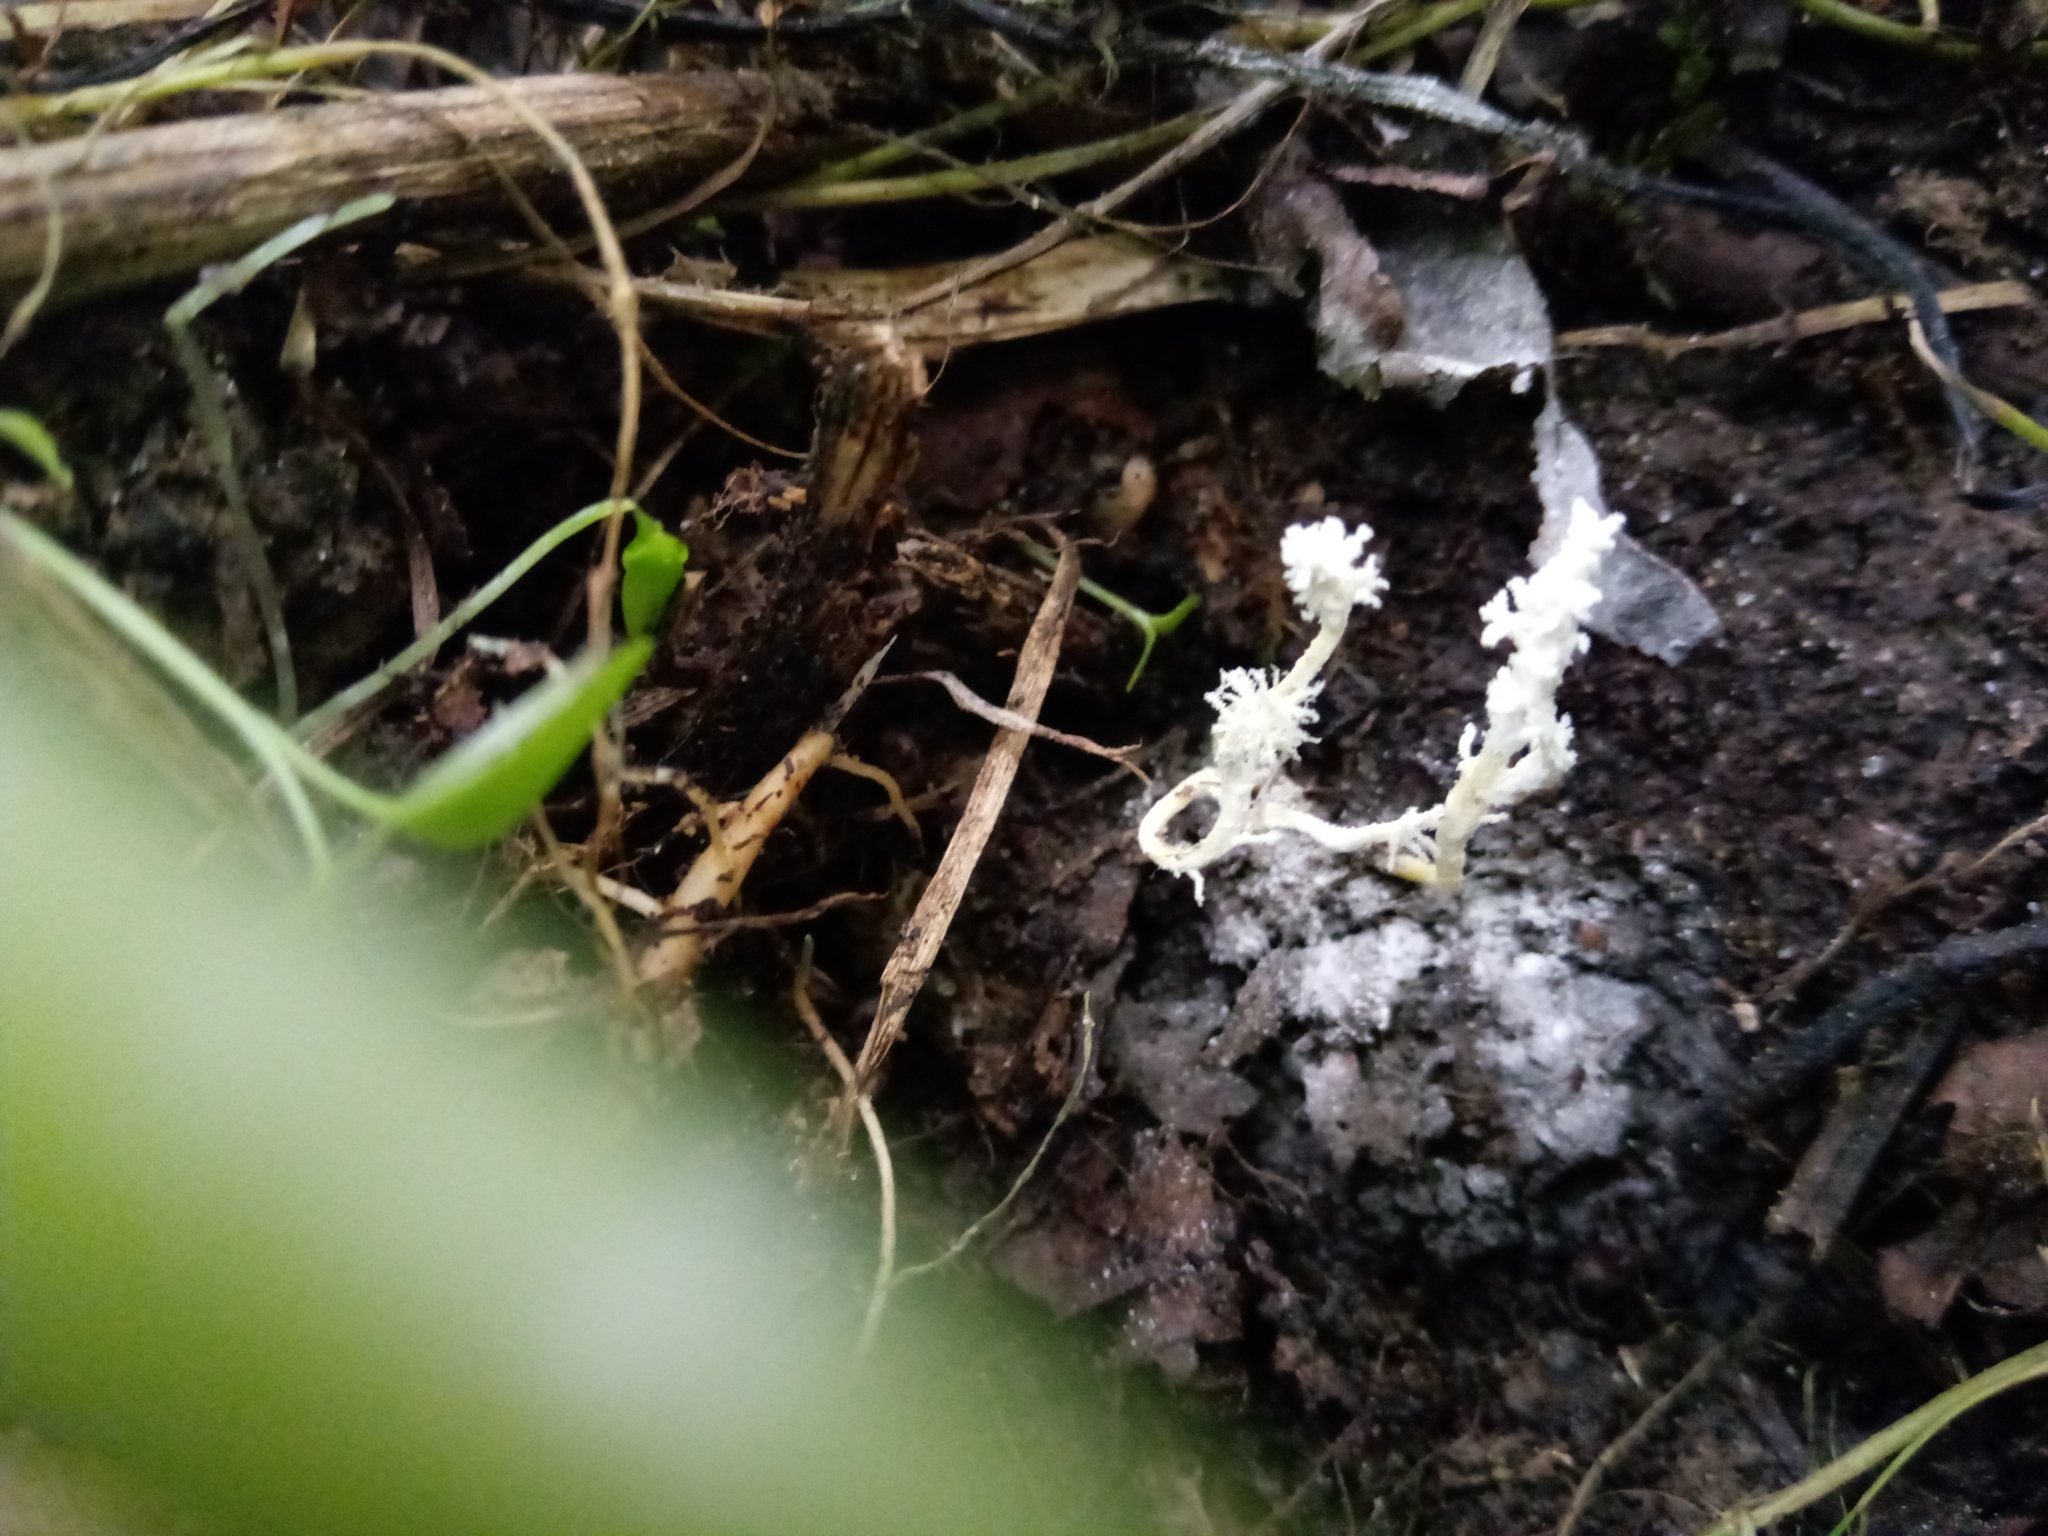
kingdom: Fungi
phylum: Ascomycota
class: Sordariomycetes
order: Hypocreales
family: Cordycipitaceae
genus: Cordyceps
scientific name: Cordyceps tenuipes
